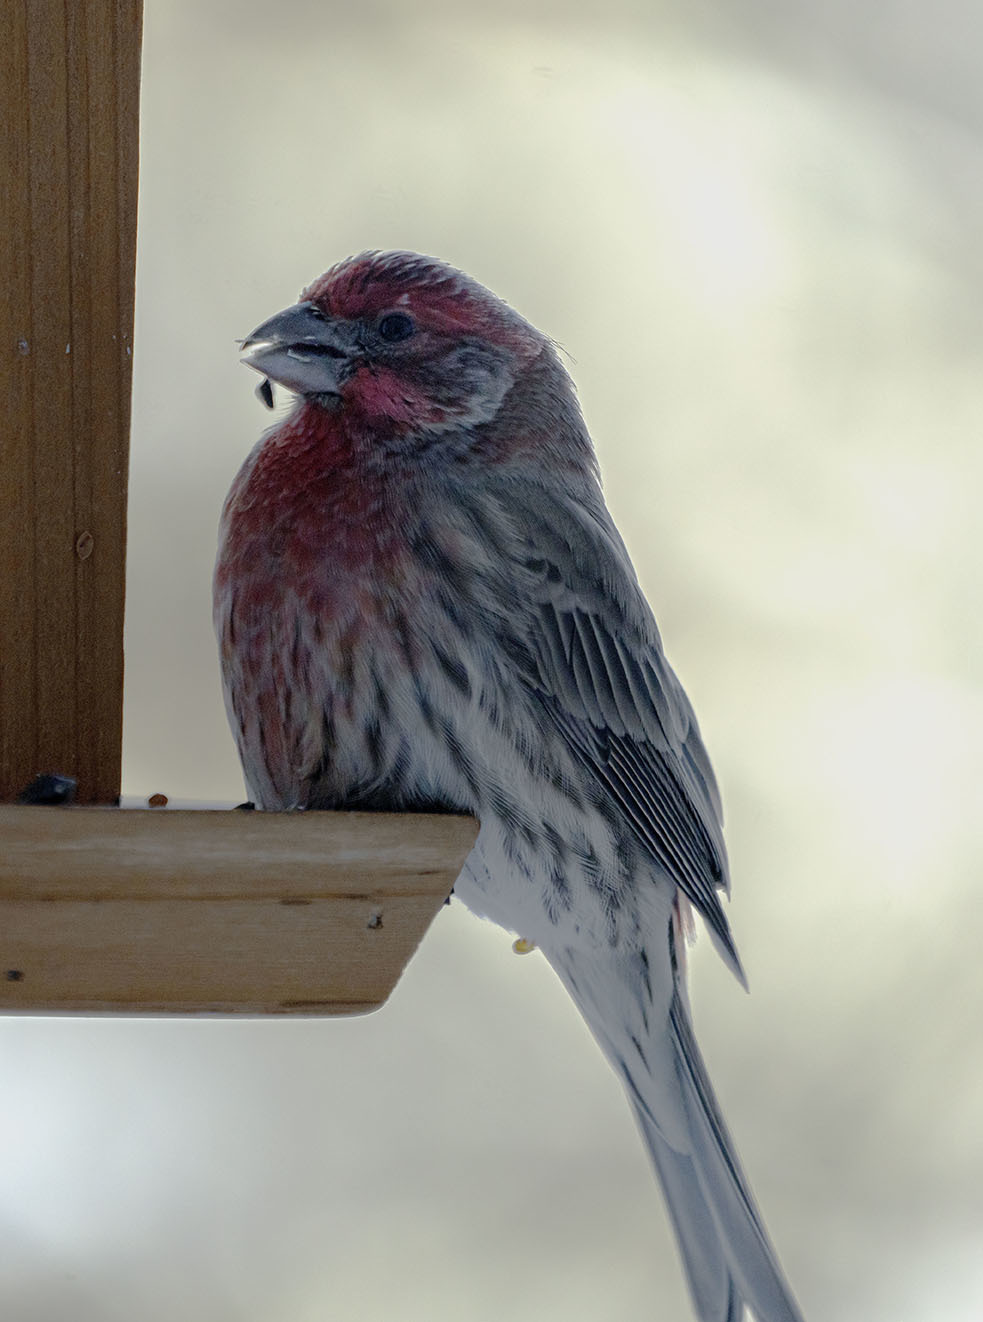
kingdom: Animalia
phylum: Chordata
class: Aves
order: Passeriformes
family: Fringillidae
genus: Haemorhous
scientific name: Haemorhous mexicanus
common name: House finch
